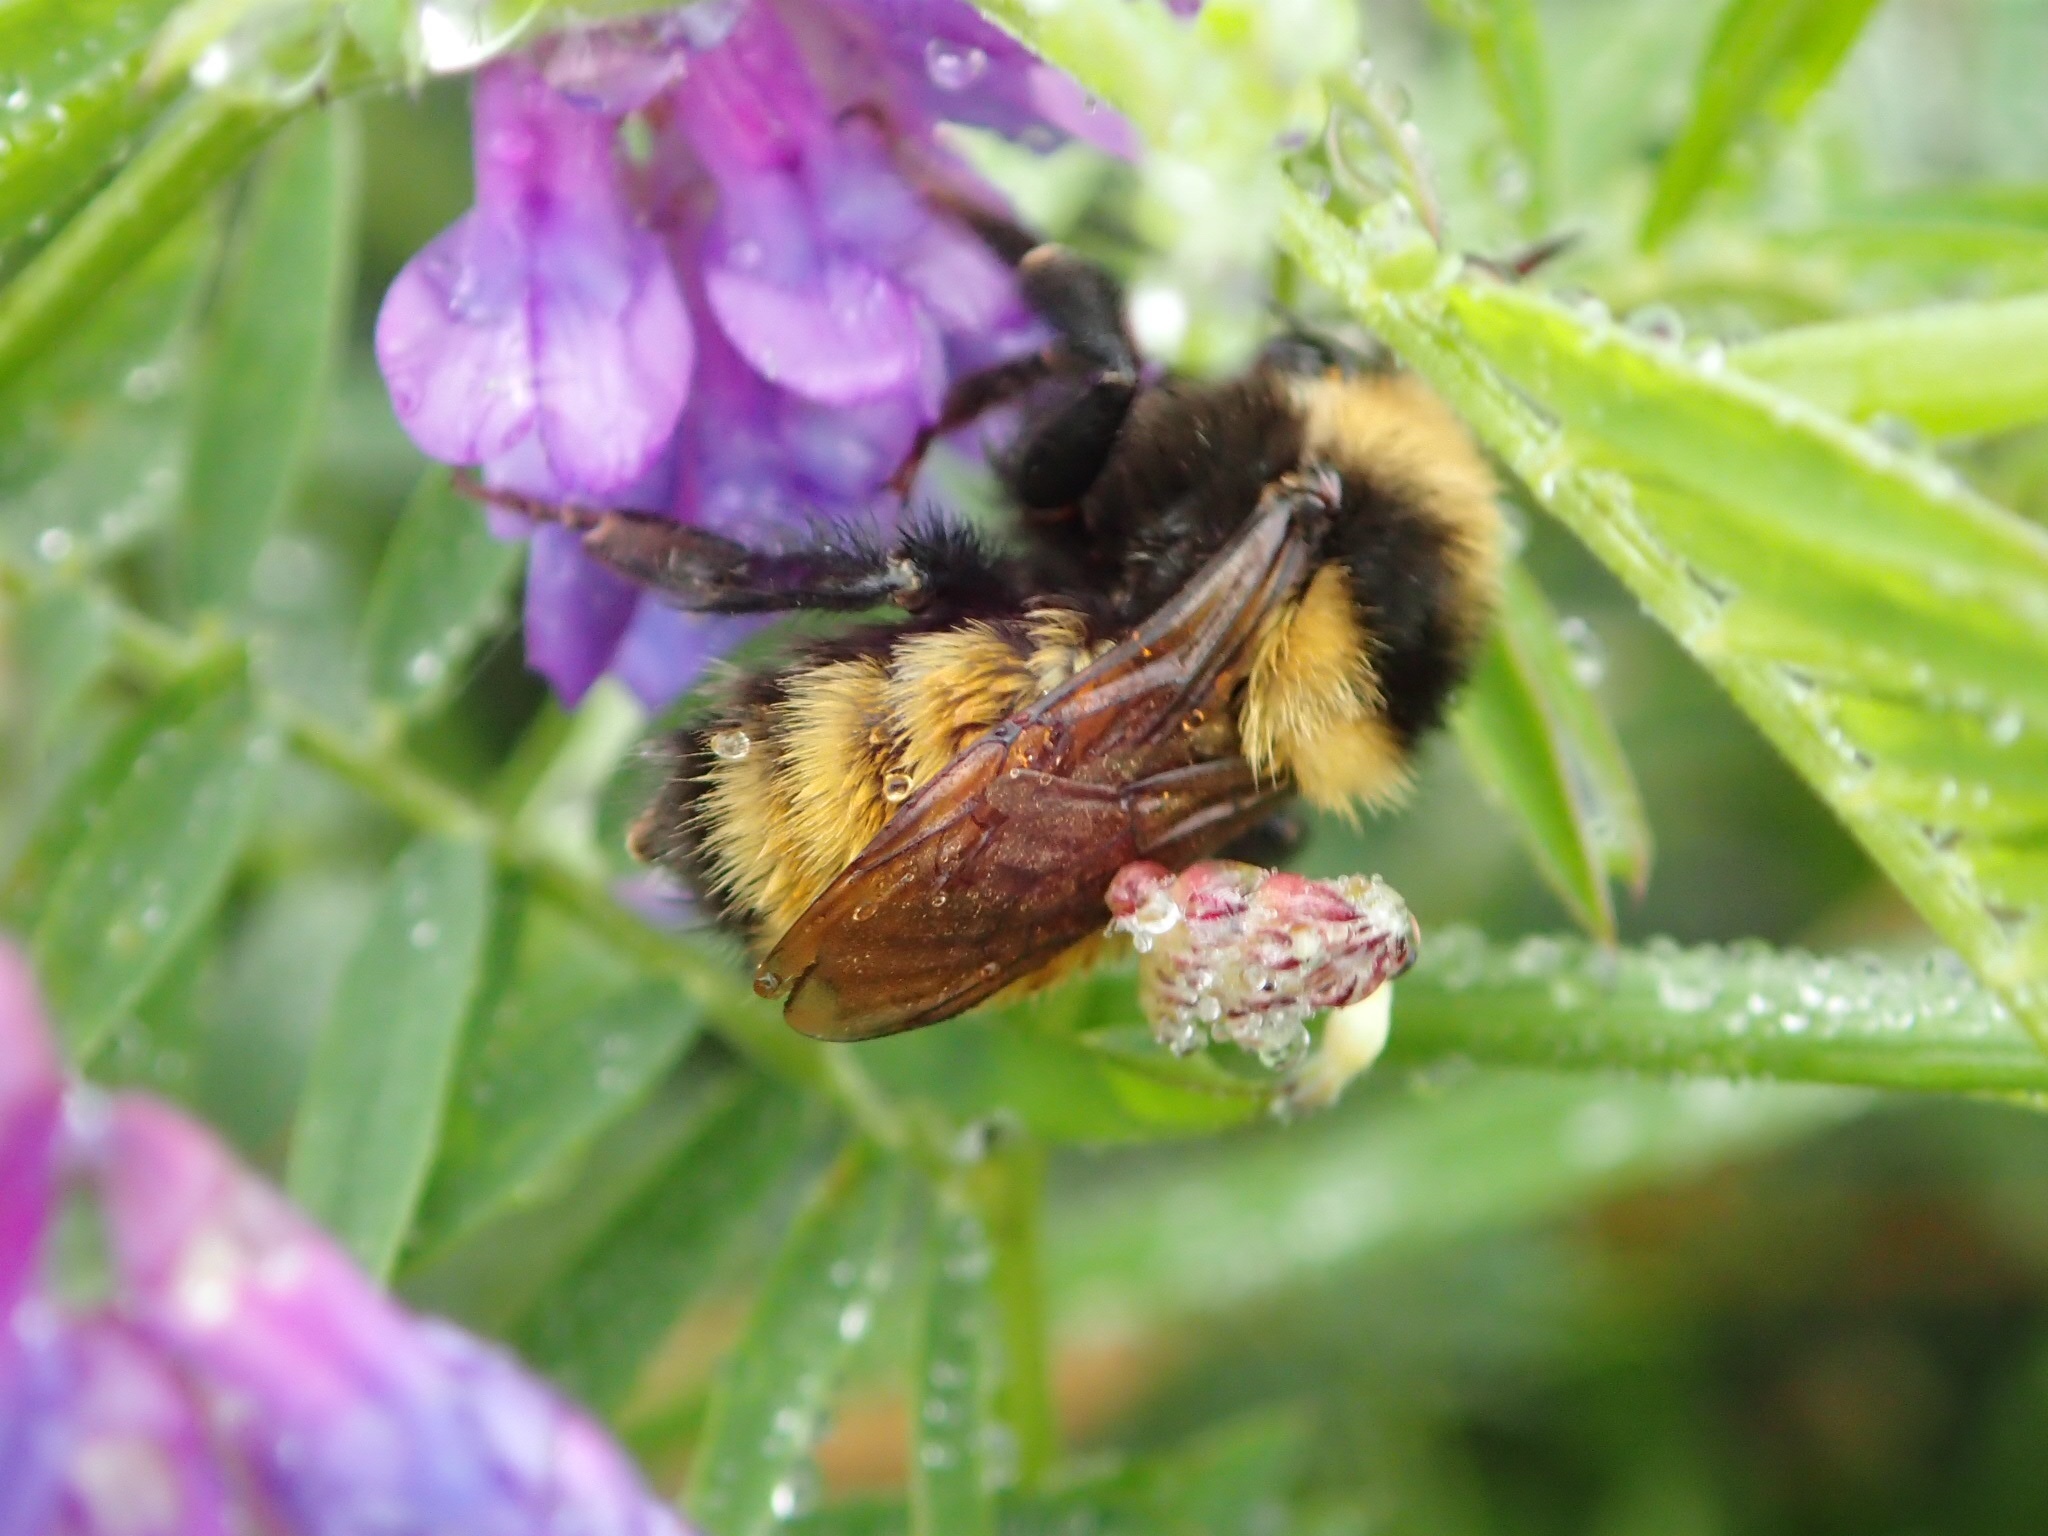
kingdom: Animalia
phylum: Arthropoda
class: Insecta
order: Hymenoptera
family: Apidae
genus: Bombus
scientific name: Bombus borealis
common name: Northern amber bumble bee
